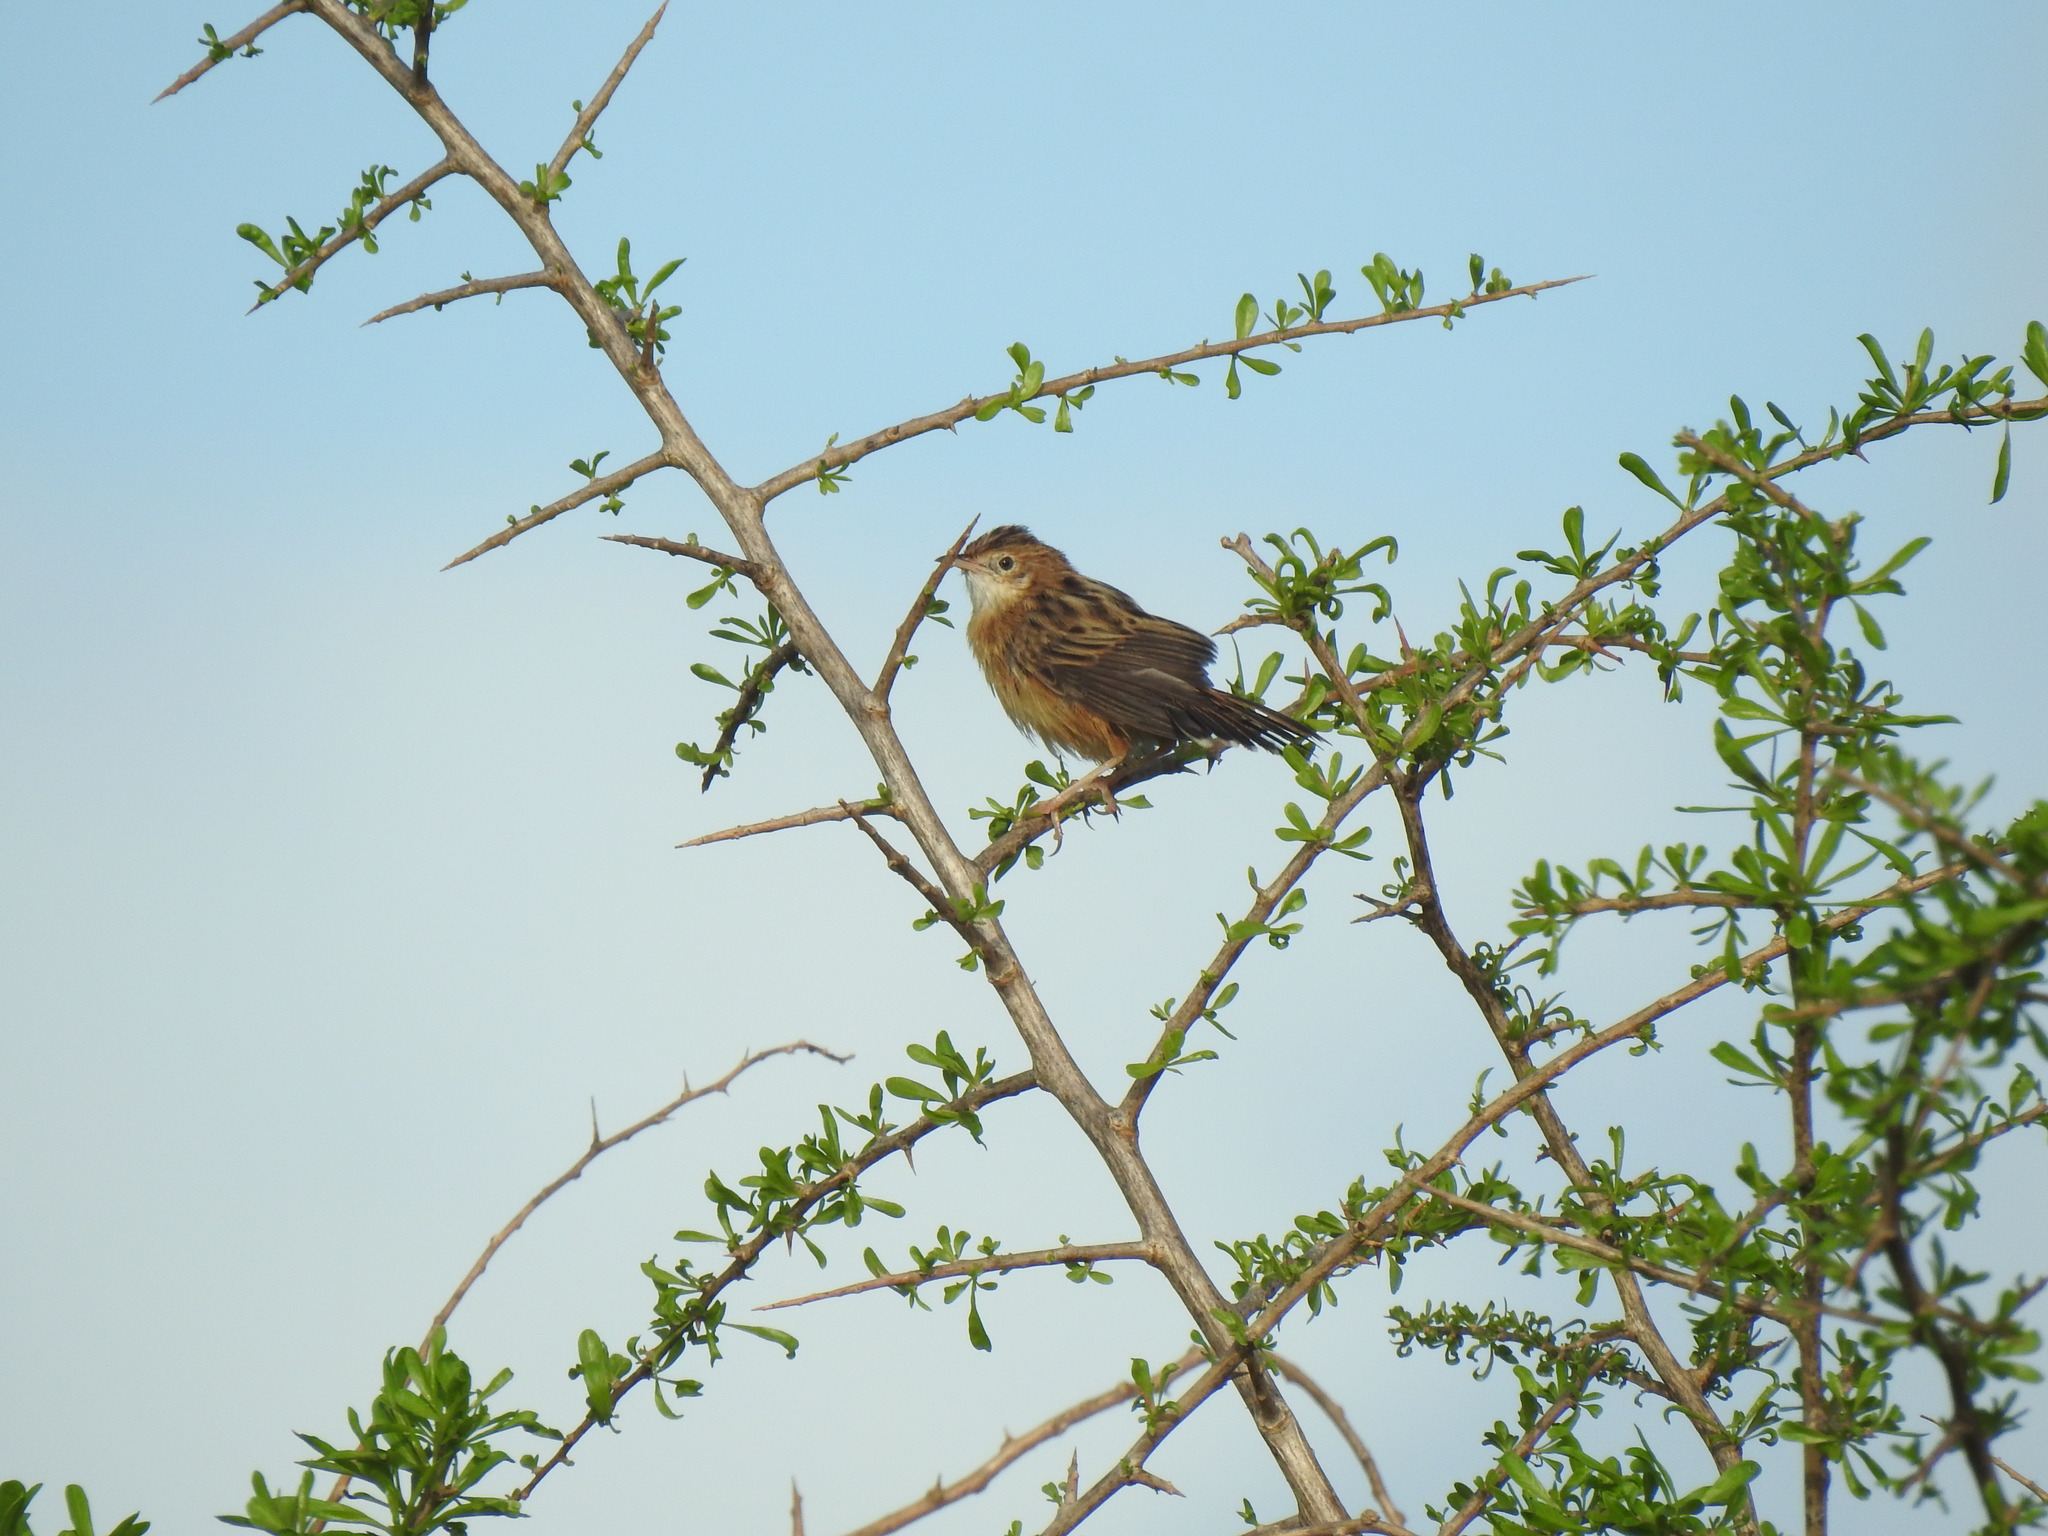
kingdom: Animalia
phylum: Chordata
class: Aves
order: Passeriformes
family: Cisticolidae
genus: Cisticola
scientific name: Cisticola juncidis
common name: Zitting cisticola
